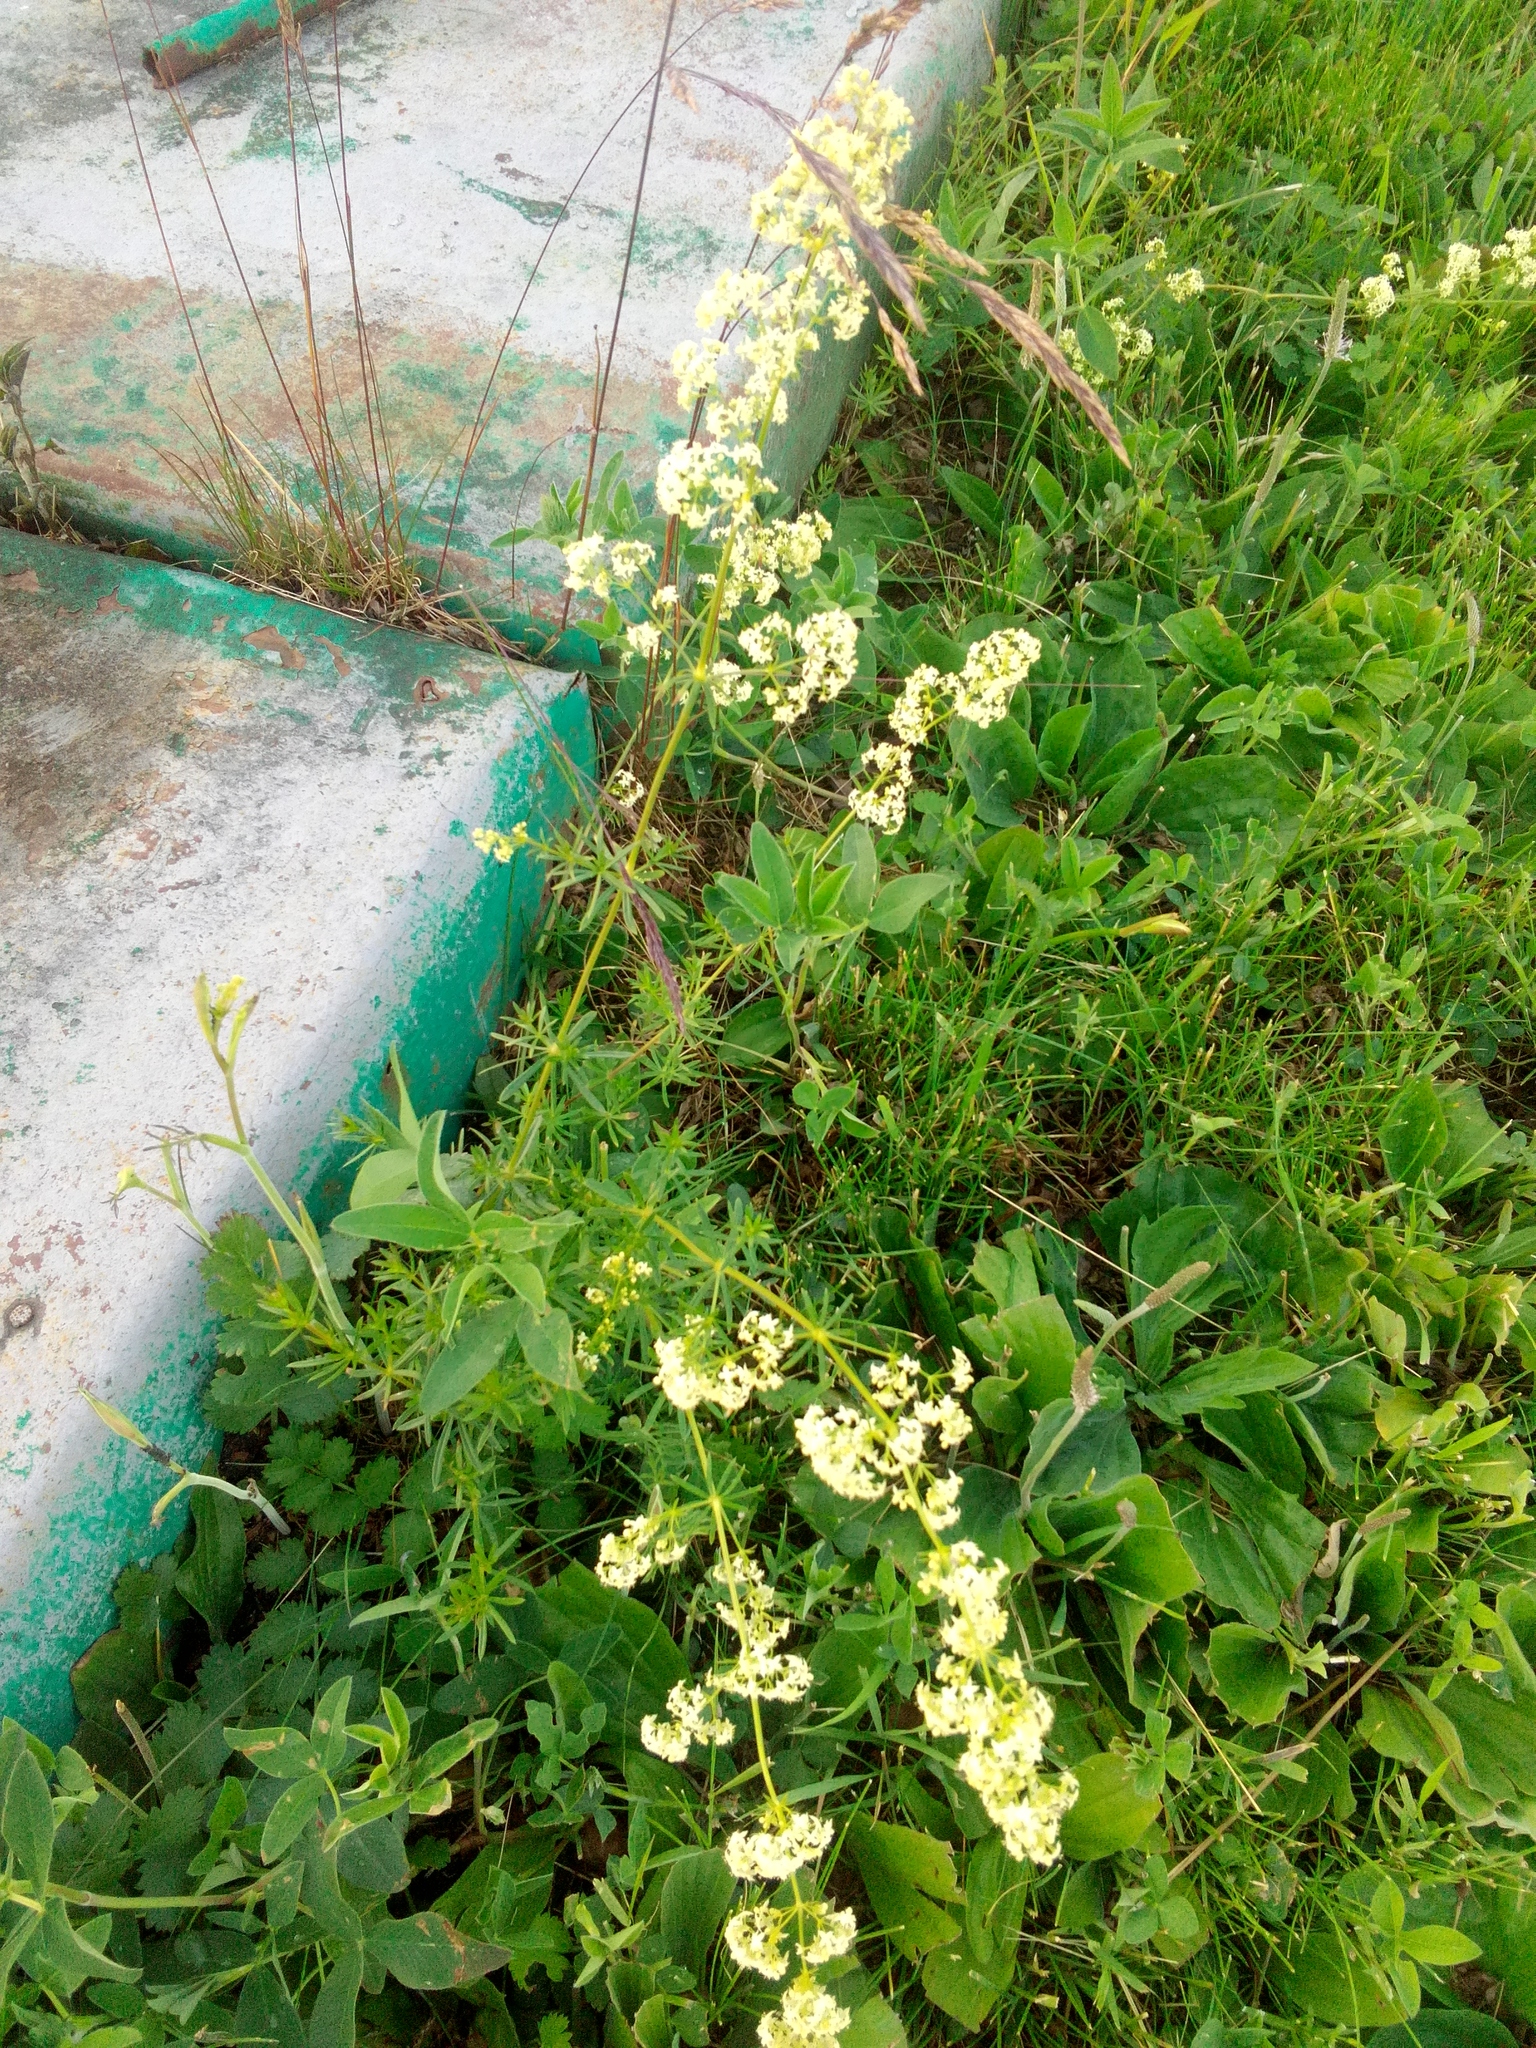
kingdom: Plantae
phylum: Tracheophyta
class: Magnoliopsida
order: Gentianales
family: Rubiaceae
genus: Galium
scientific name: Galium mollugo
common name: Hedge bedstraw
